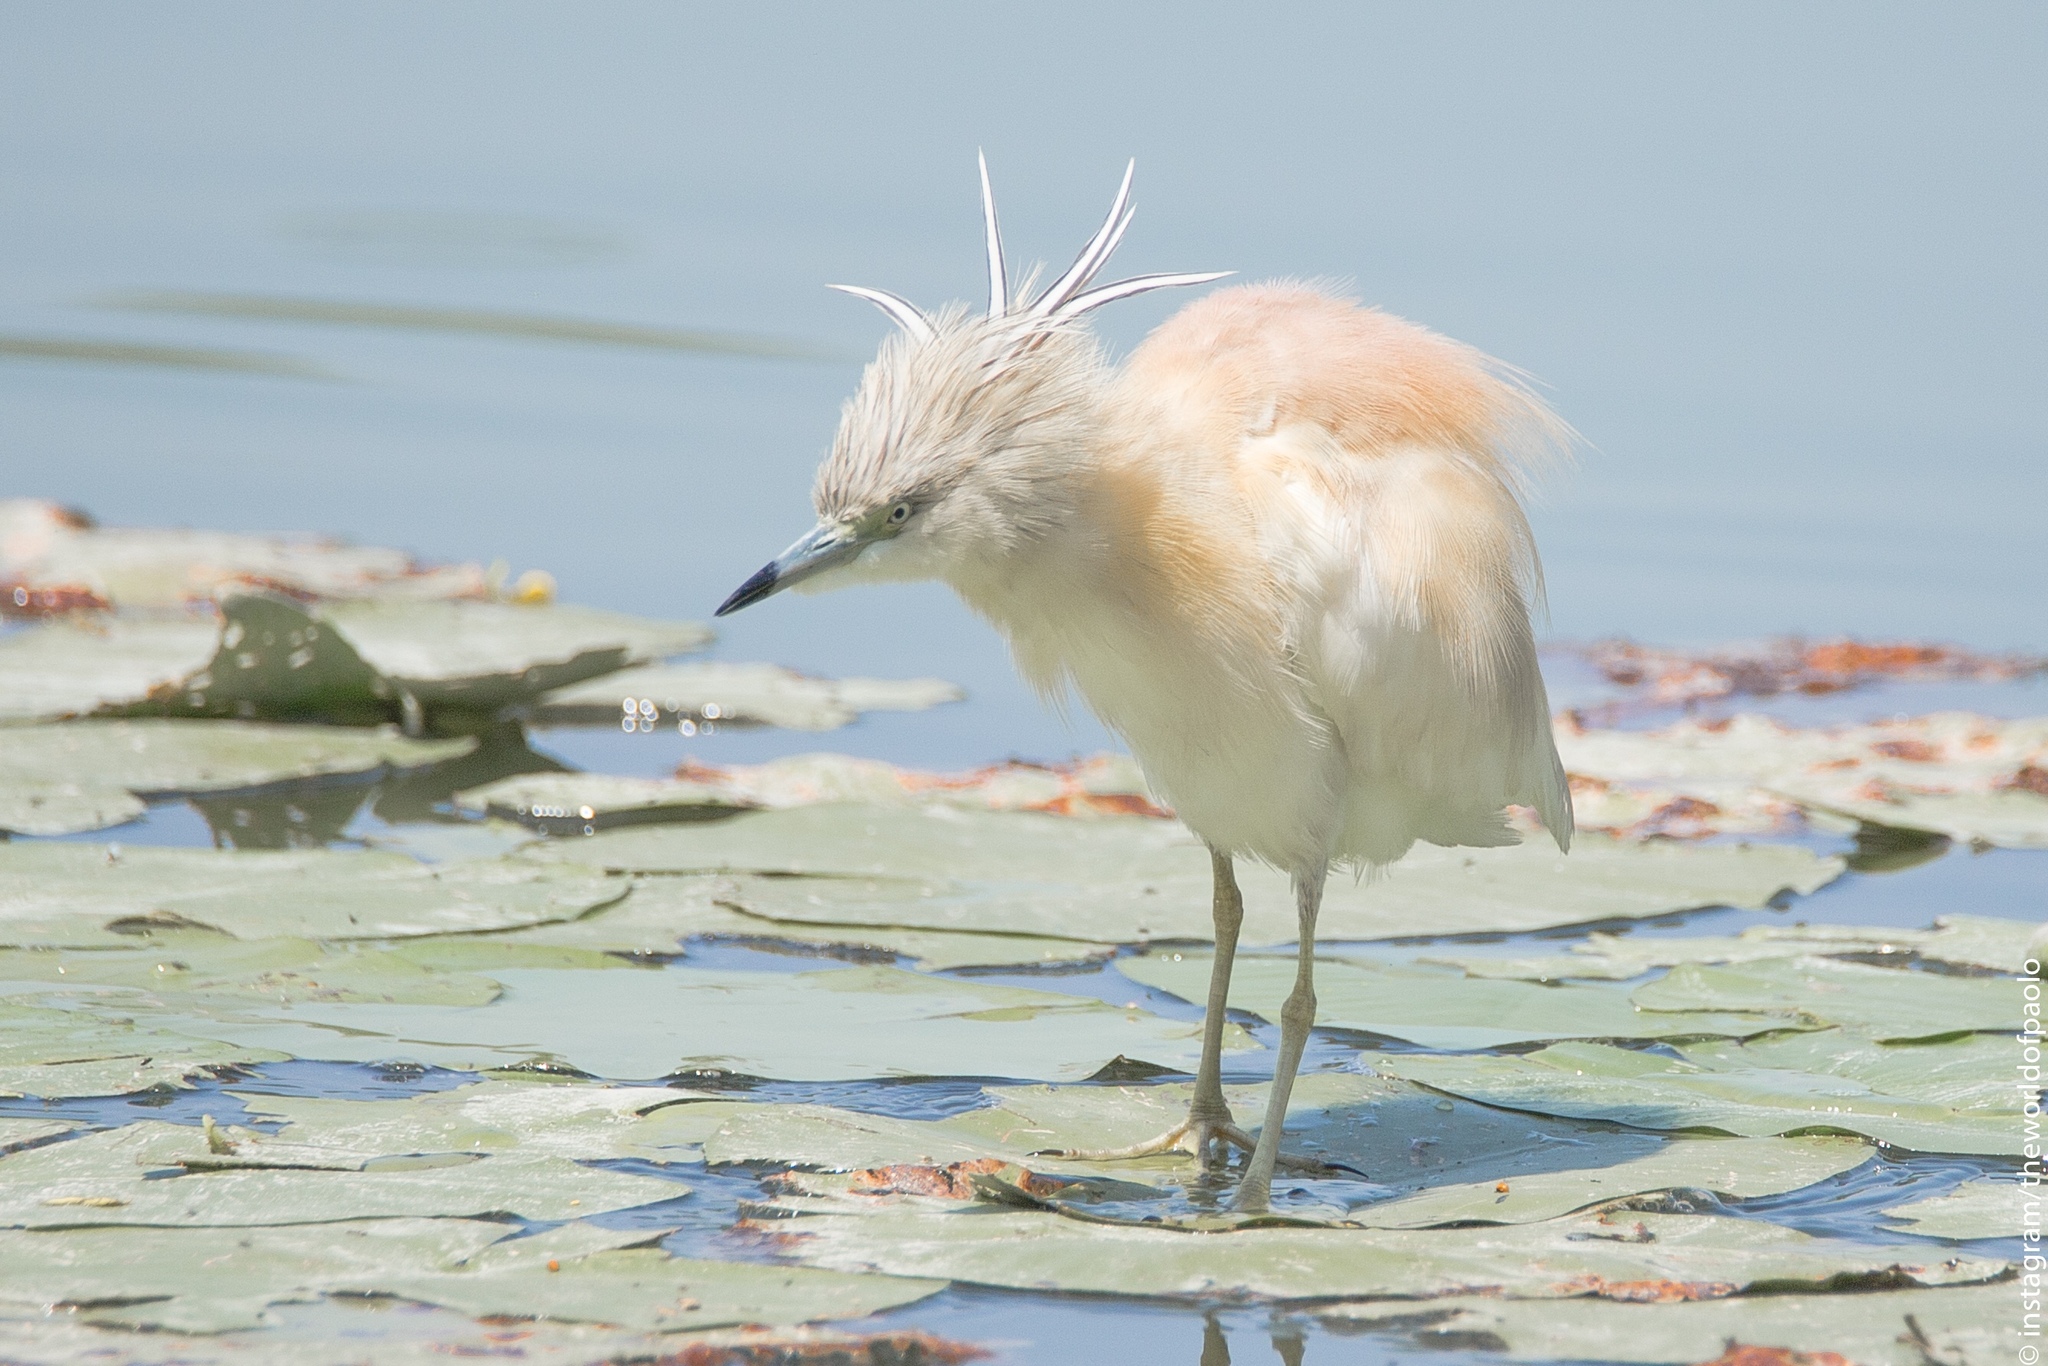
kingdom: Animalia
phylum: Chordata
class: Aves
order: Pelecaniformes
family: Ardeidae
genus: Ardeola
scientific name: Ardeola ralloides
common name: Squacco heron
